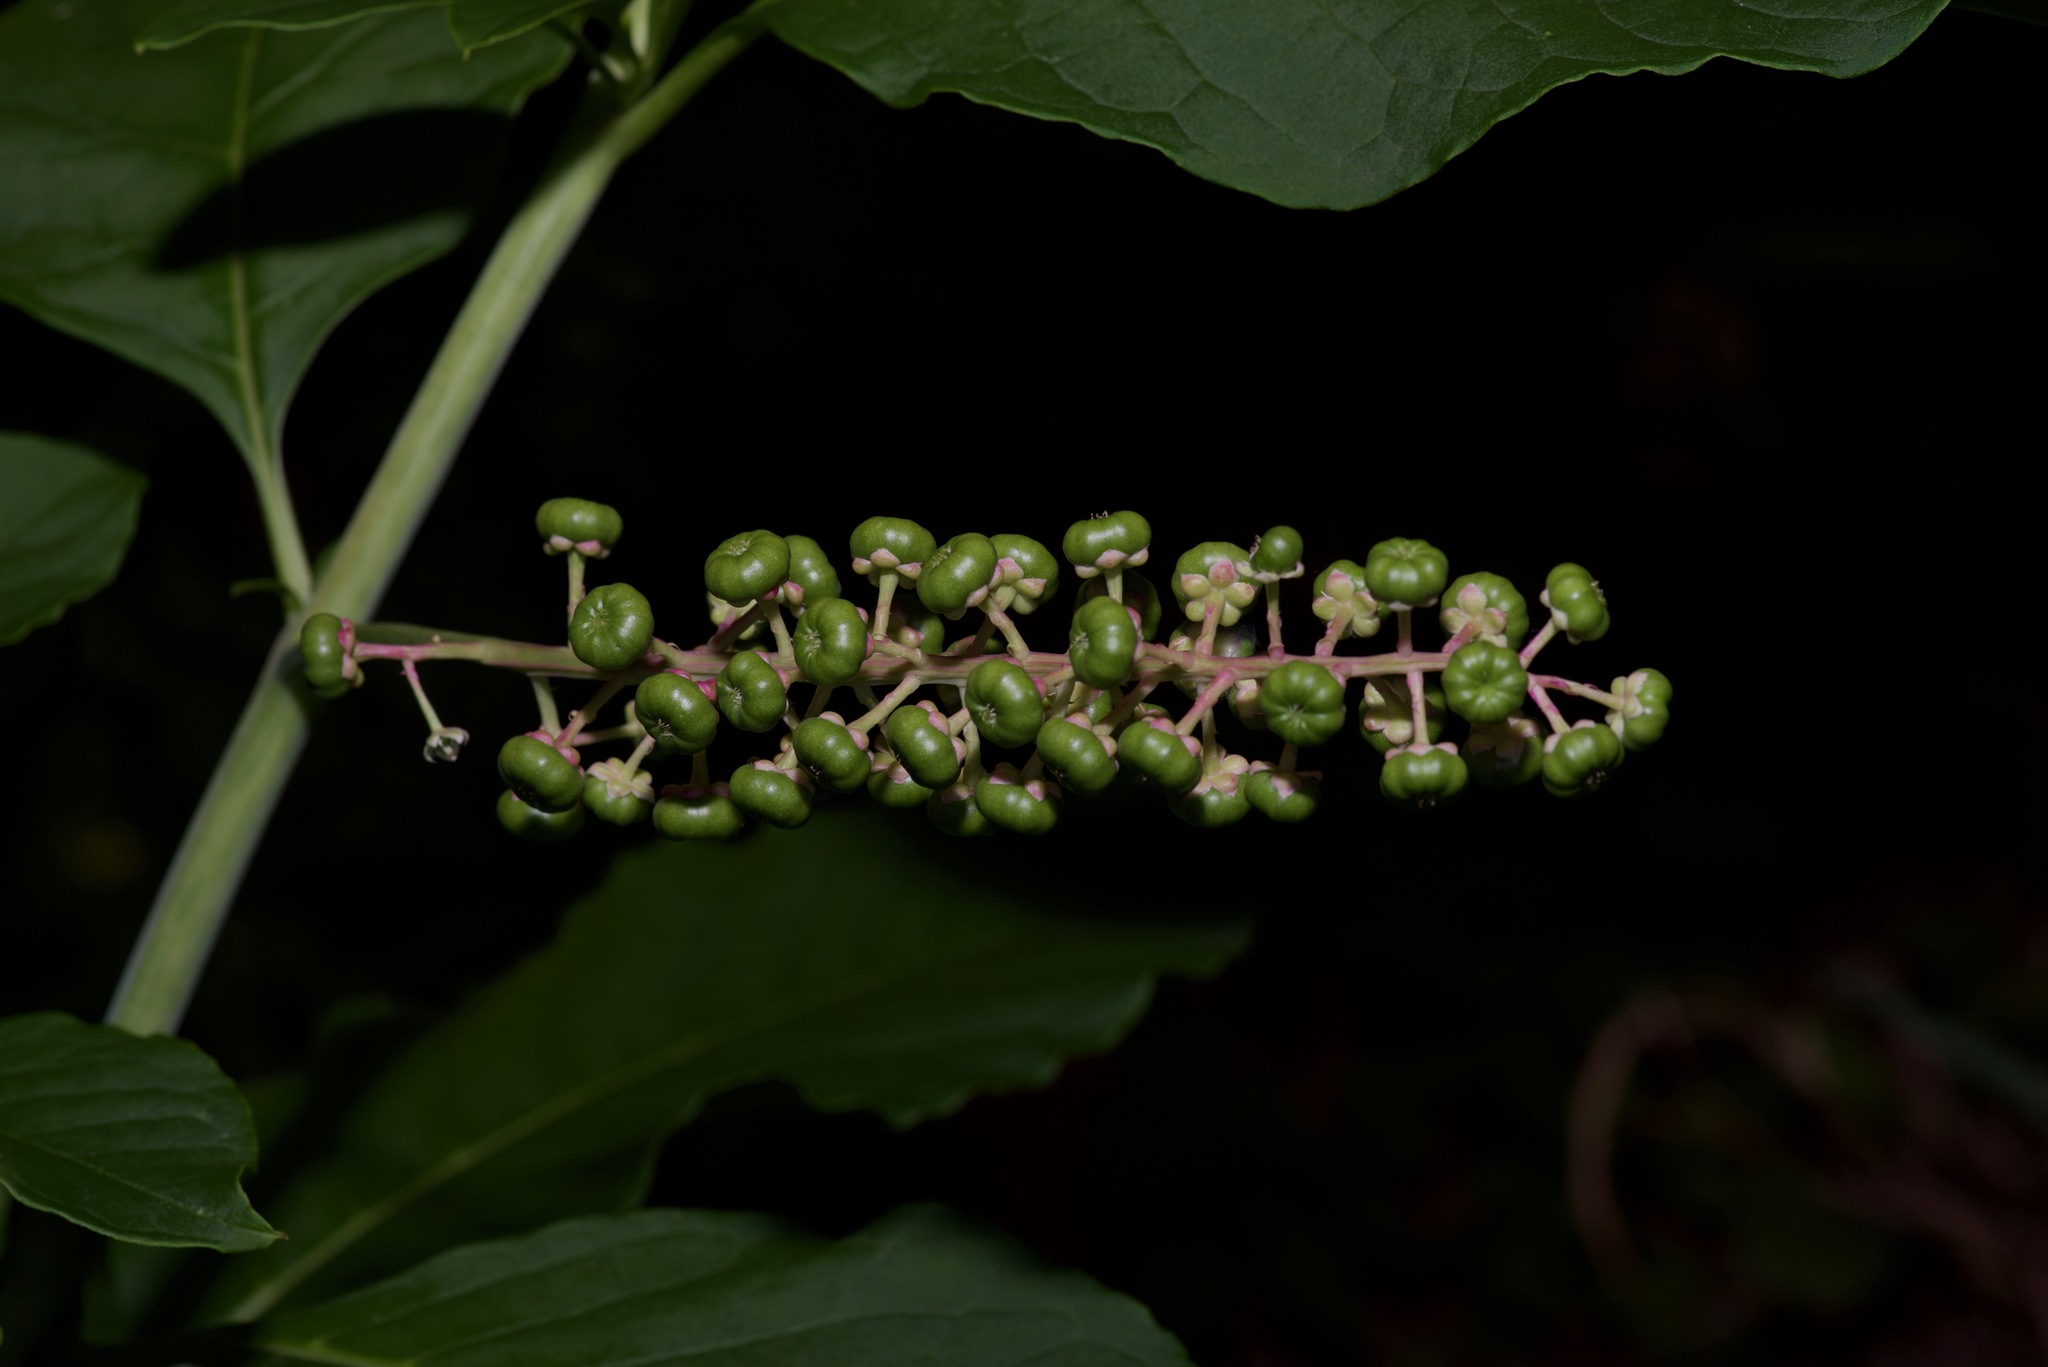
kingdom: Plantae
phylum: Tracheophyta
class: Magnoliopsida
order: Caryophyllales
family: Phytolaccaceae
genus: Phytolacca
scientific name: Phytolacca americana
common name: American pokeweed
